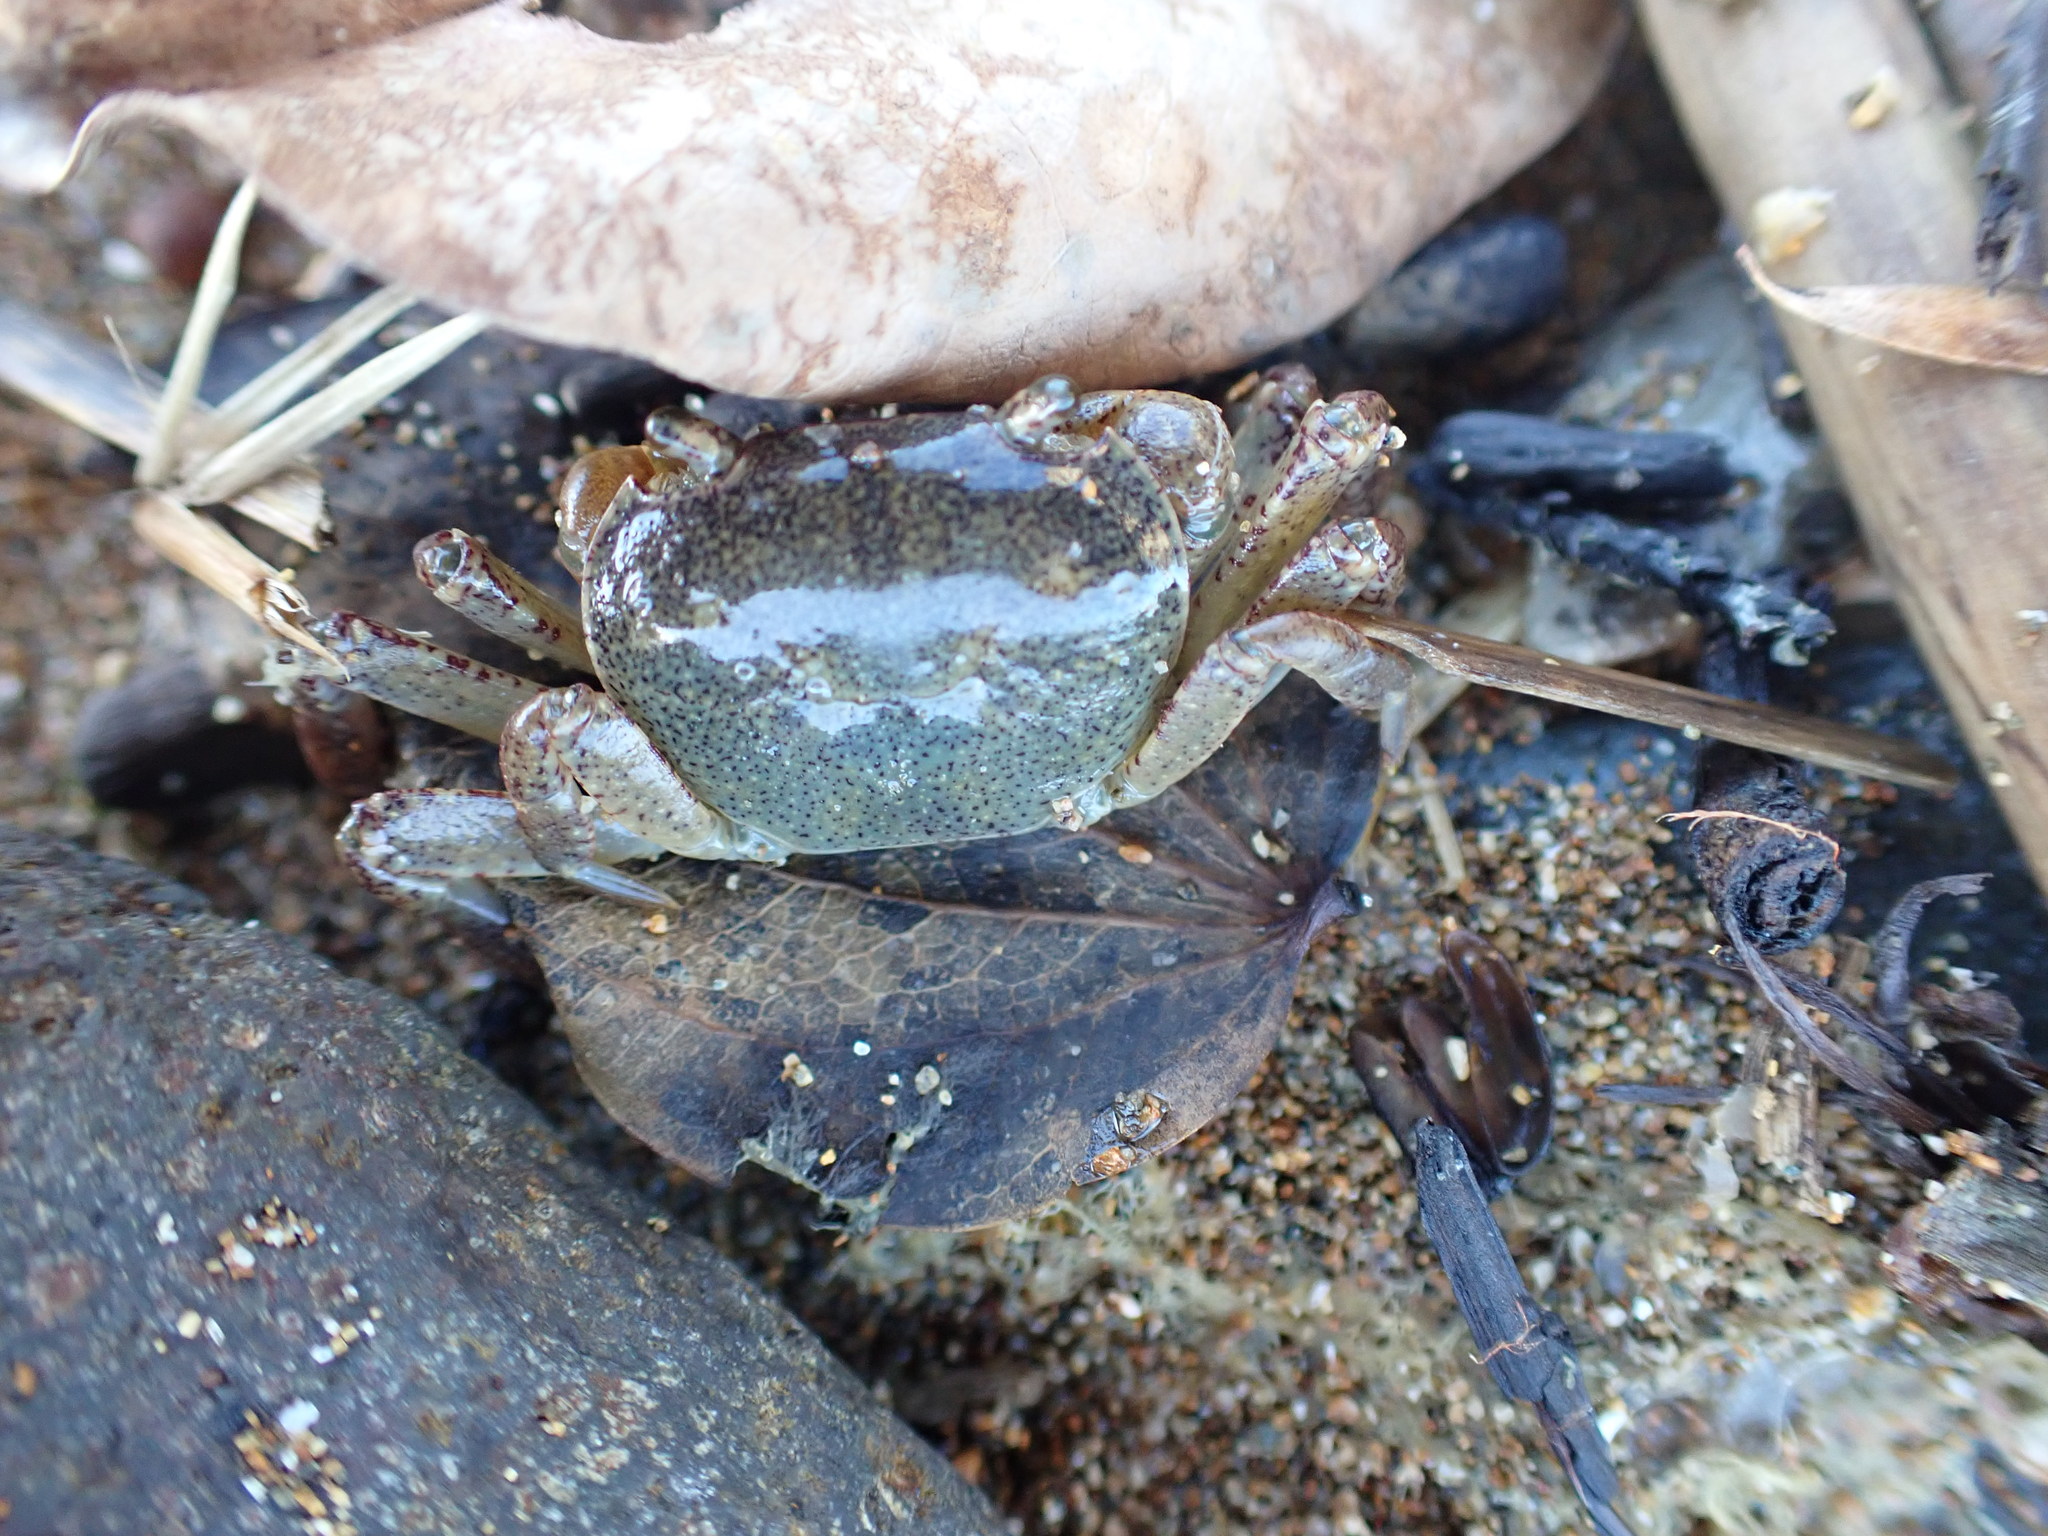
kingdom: Animalia
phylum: Arthropoda
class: Malacostraca
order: Decapoda
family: Varunidae
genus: Cyclograpsus
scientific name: Cyclograpsus lavauxi
